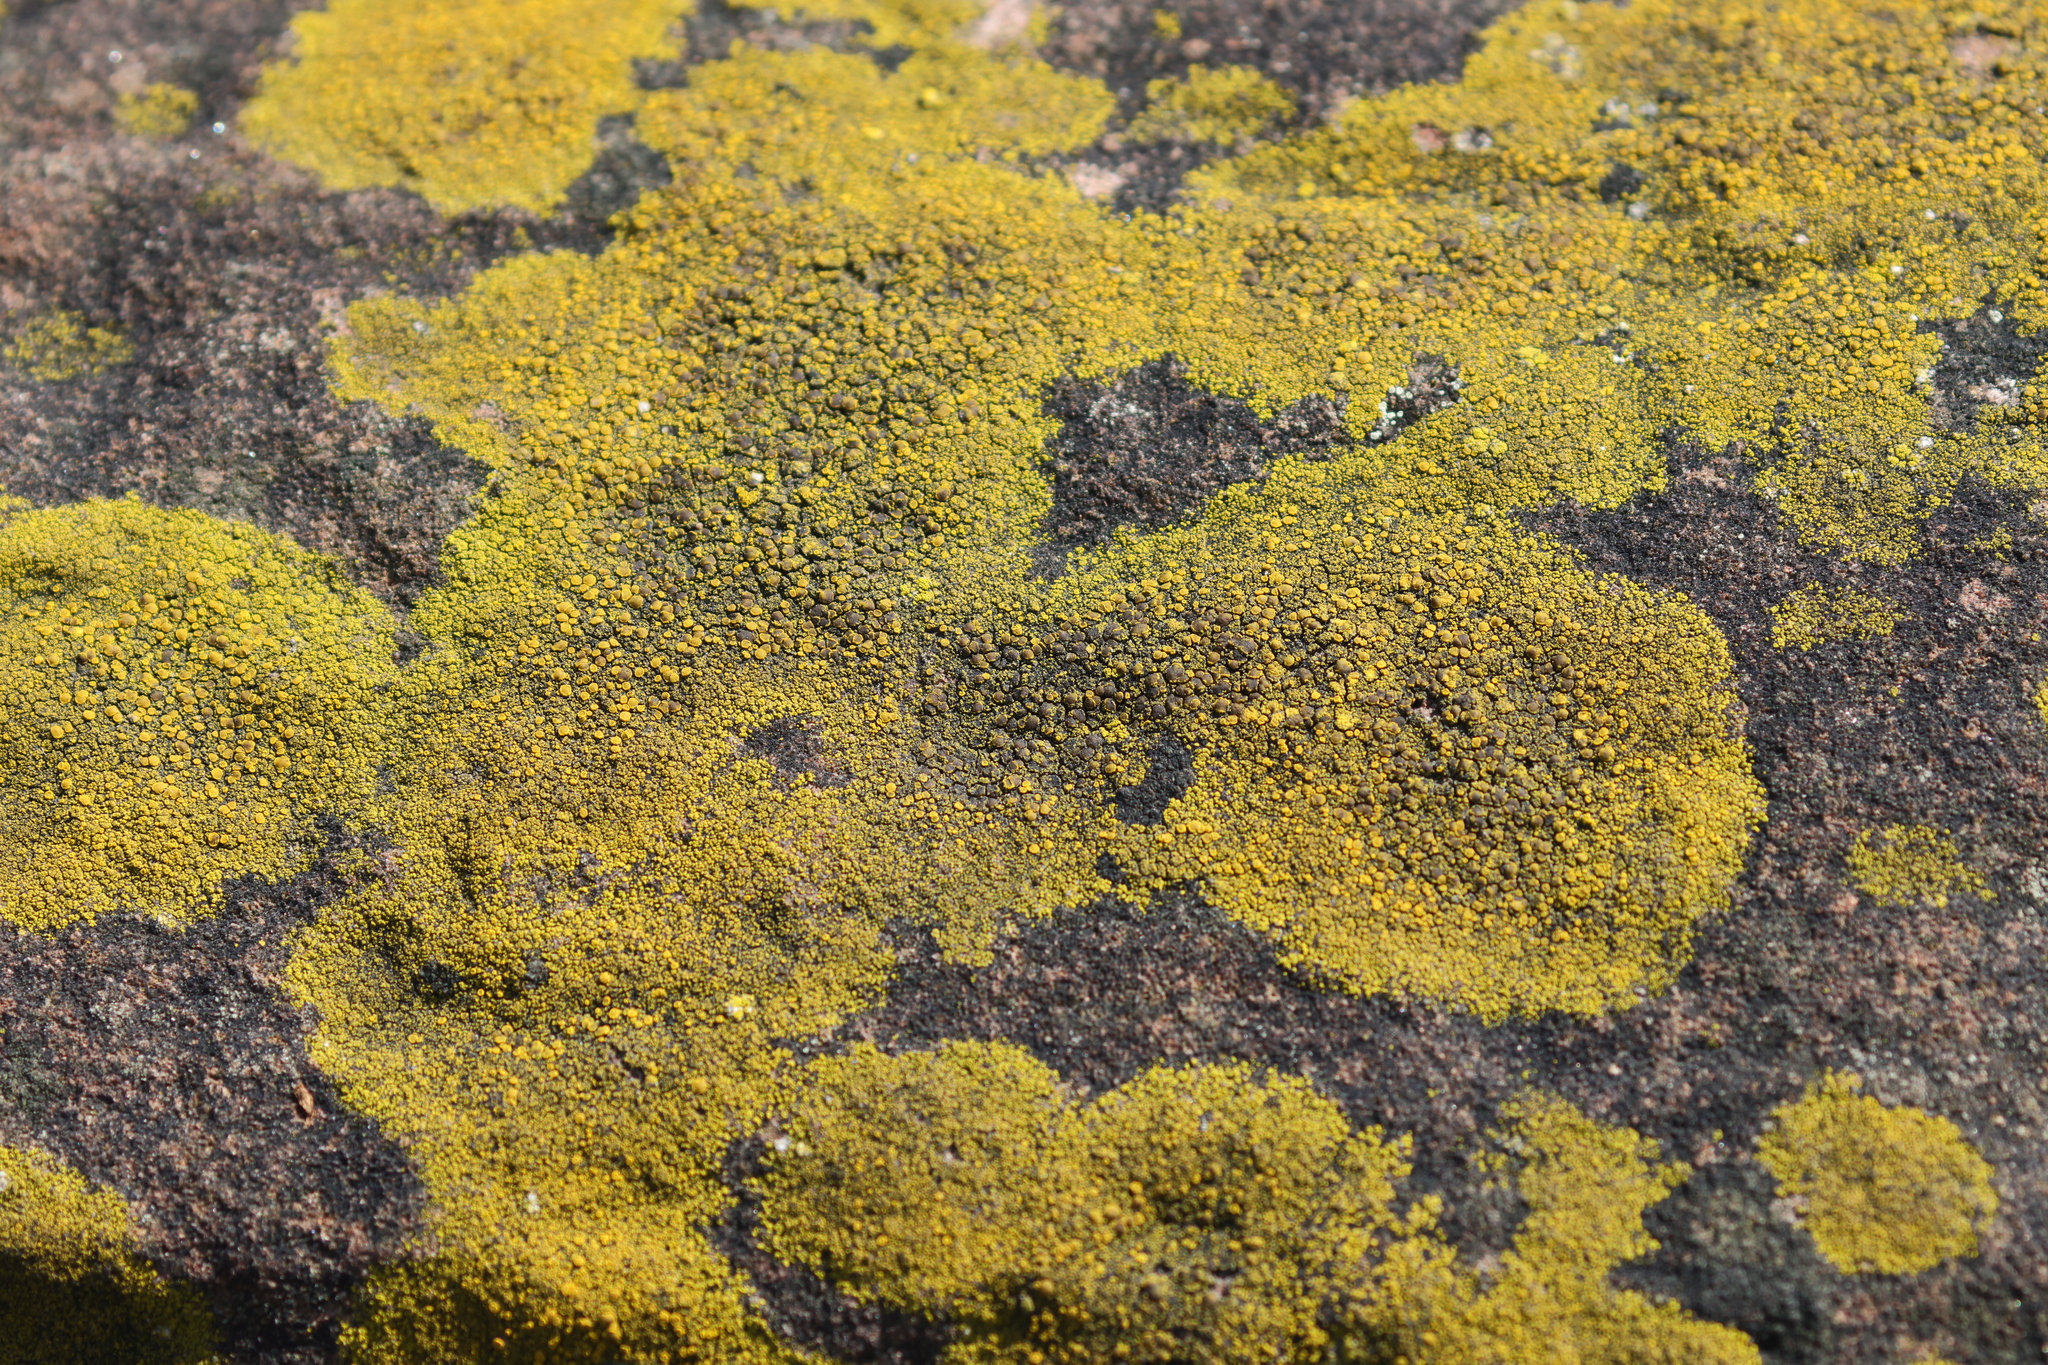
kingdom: Fungi
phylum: Ascomycota
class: Candelariomycetes
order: Candelariales
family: Candelariaceae
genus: Candelariella
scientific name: Candelariella vitellina
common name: Common goldspeck
